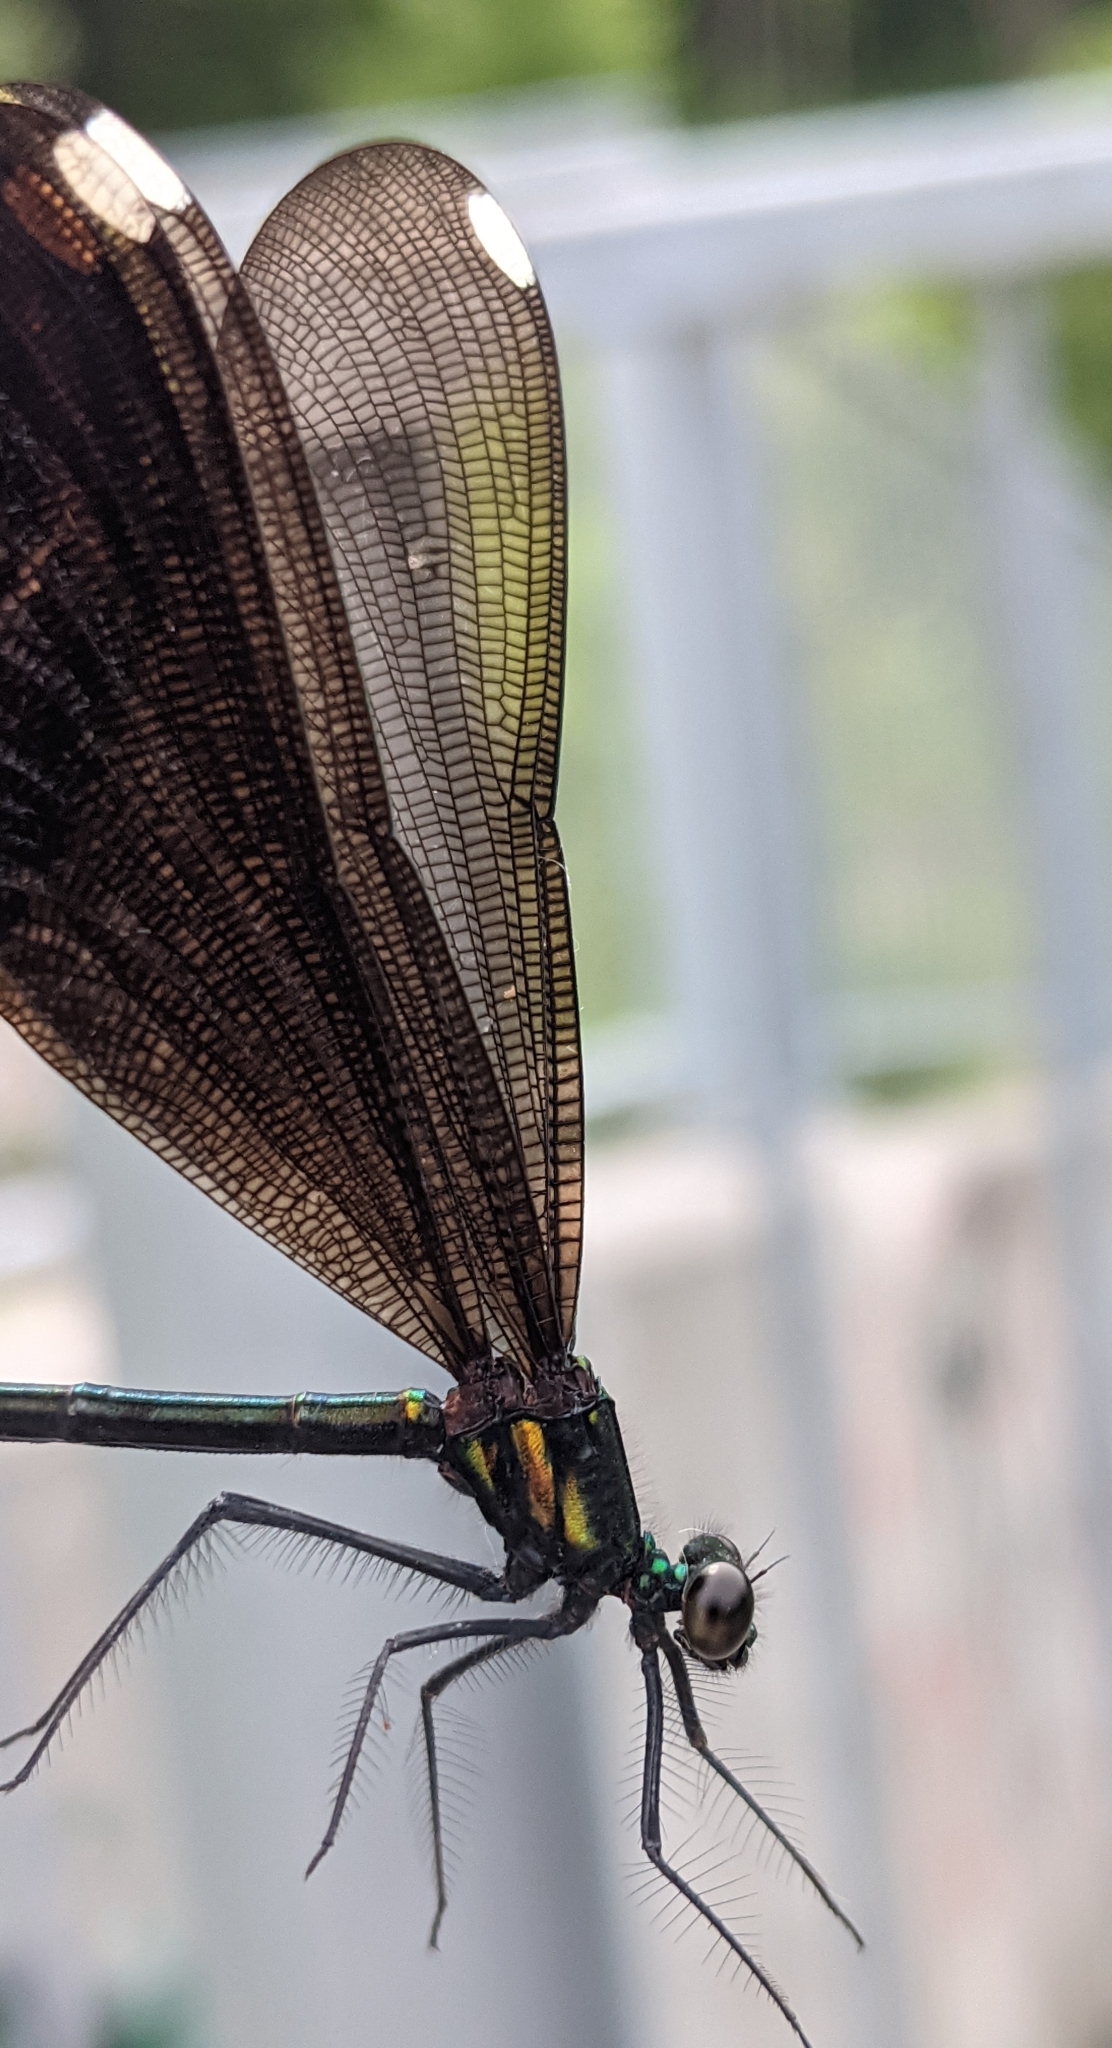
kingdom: Animalia
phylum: Arthropoda
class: Insecta
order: Odonata
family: Calopterygidae
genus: Calopteryx
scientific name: Calopteryx maculata
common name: Ebony jewelwing
